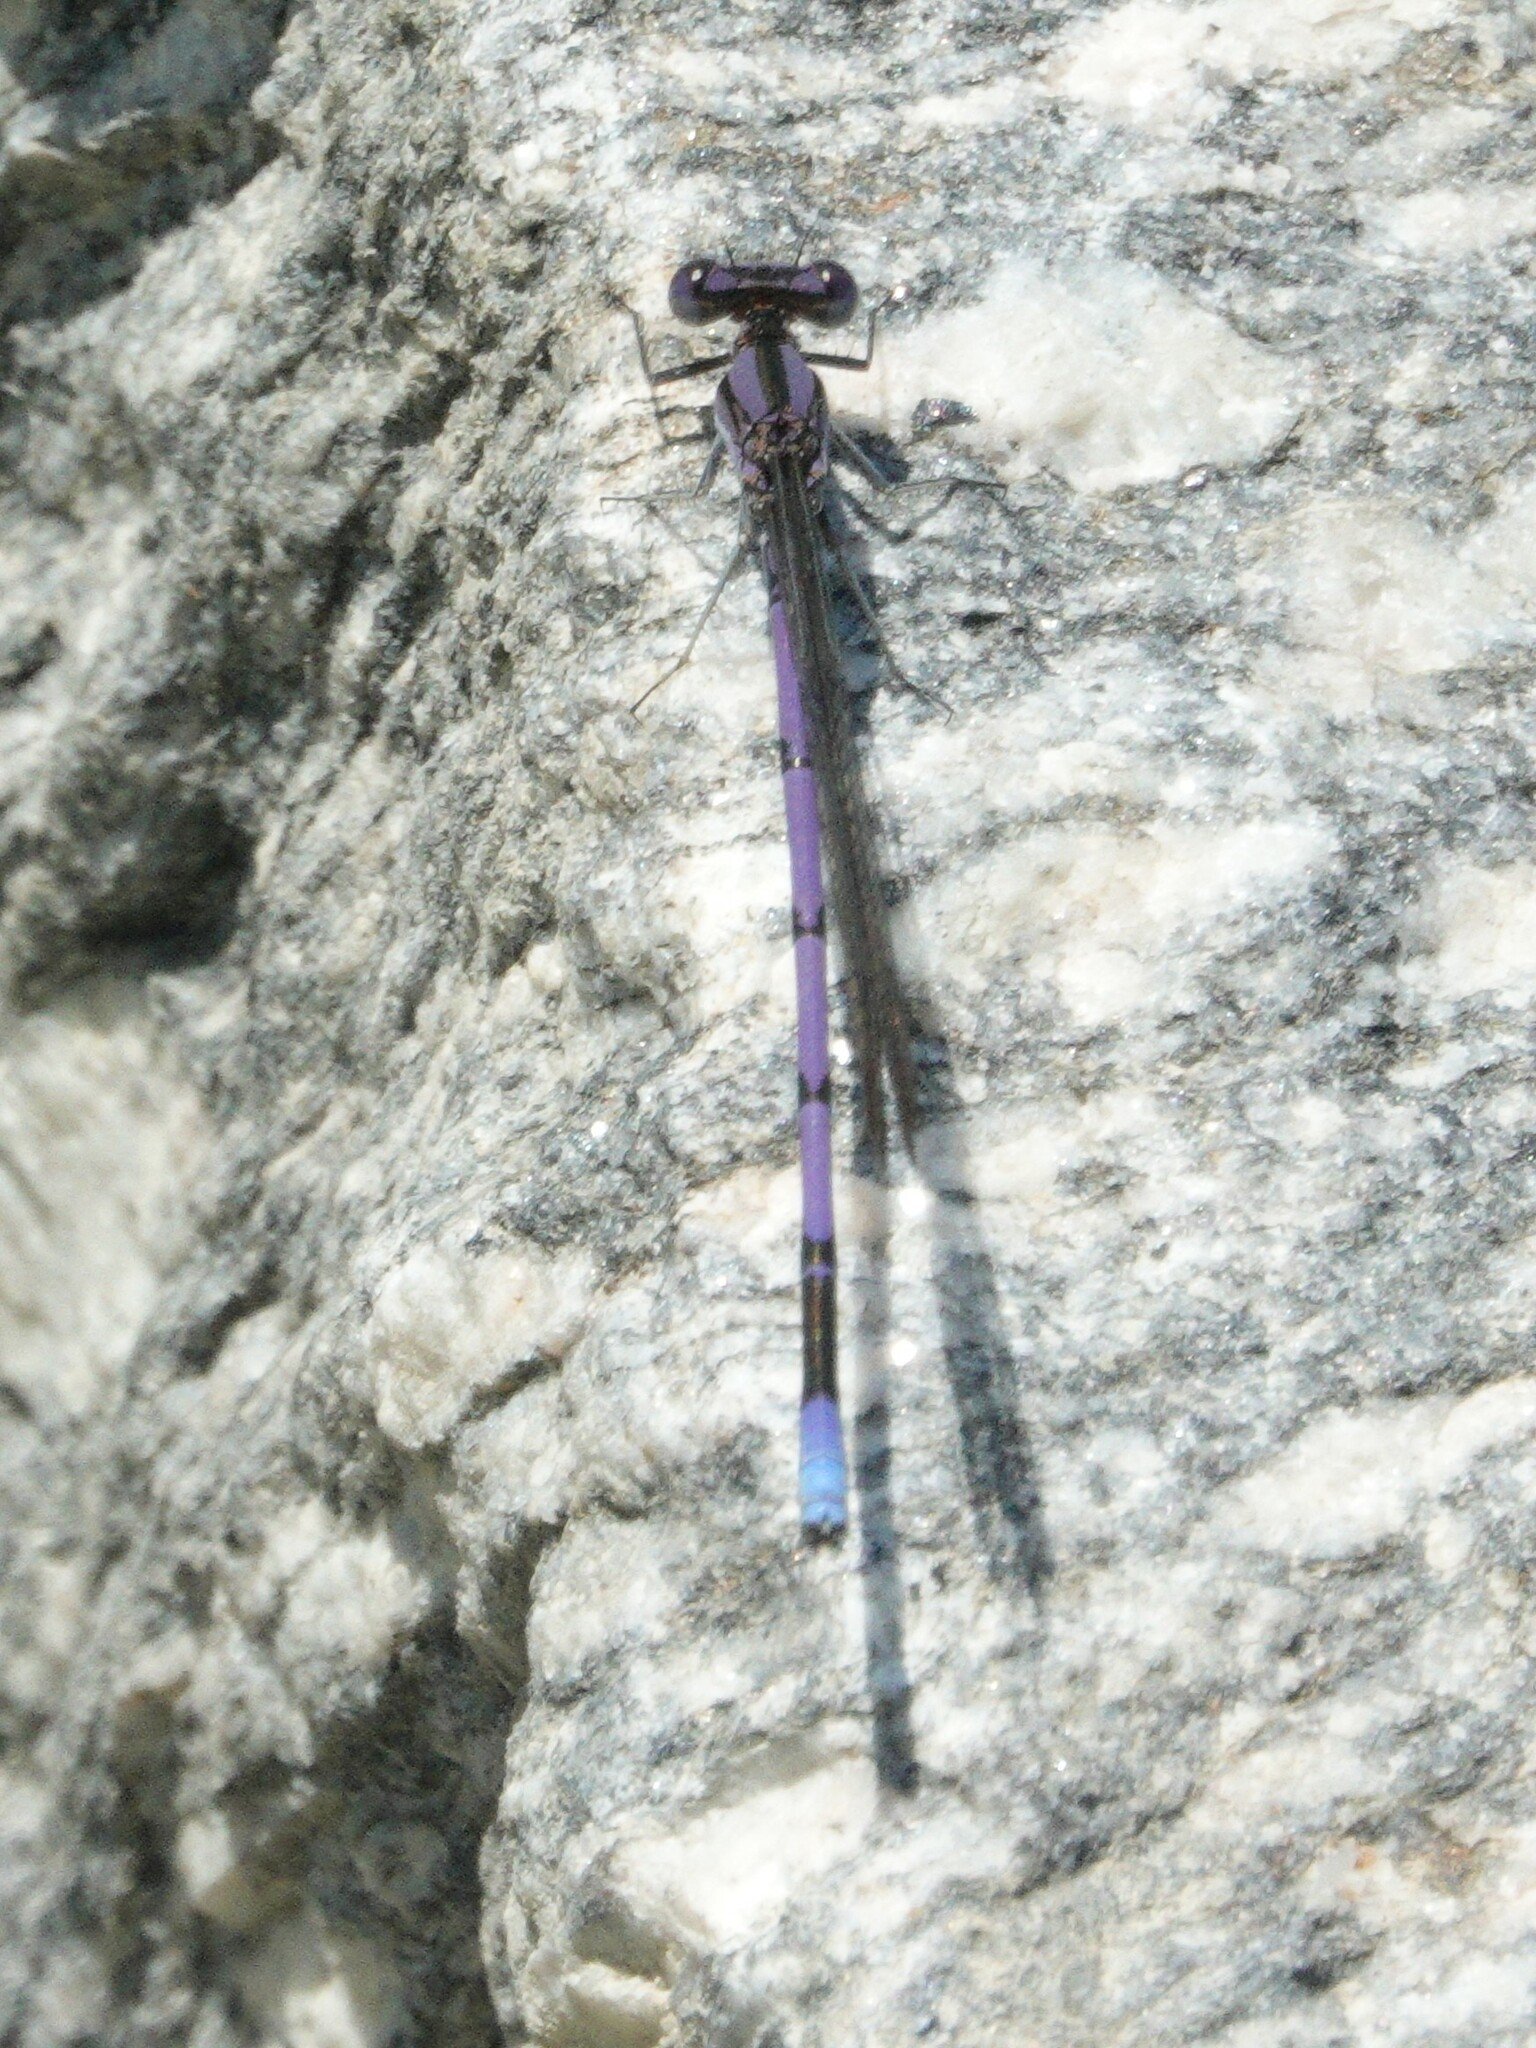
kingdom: Animalia
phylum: Arthropoda
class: Insecta
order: Odonata
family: Coenagrionidae
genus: Argia
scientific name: Argia fumipennis
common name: Variable dancer
